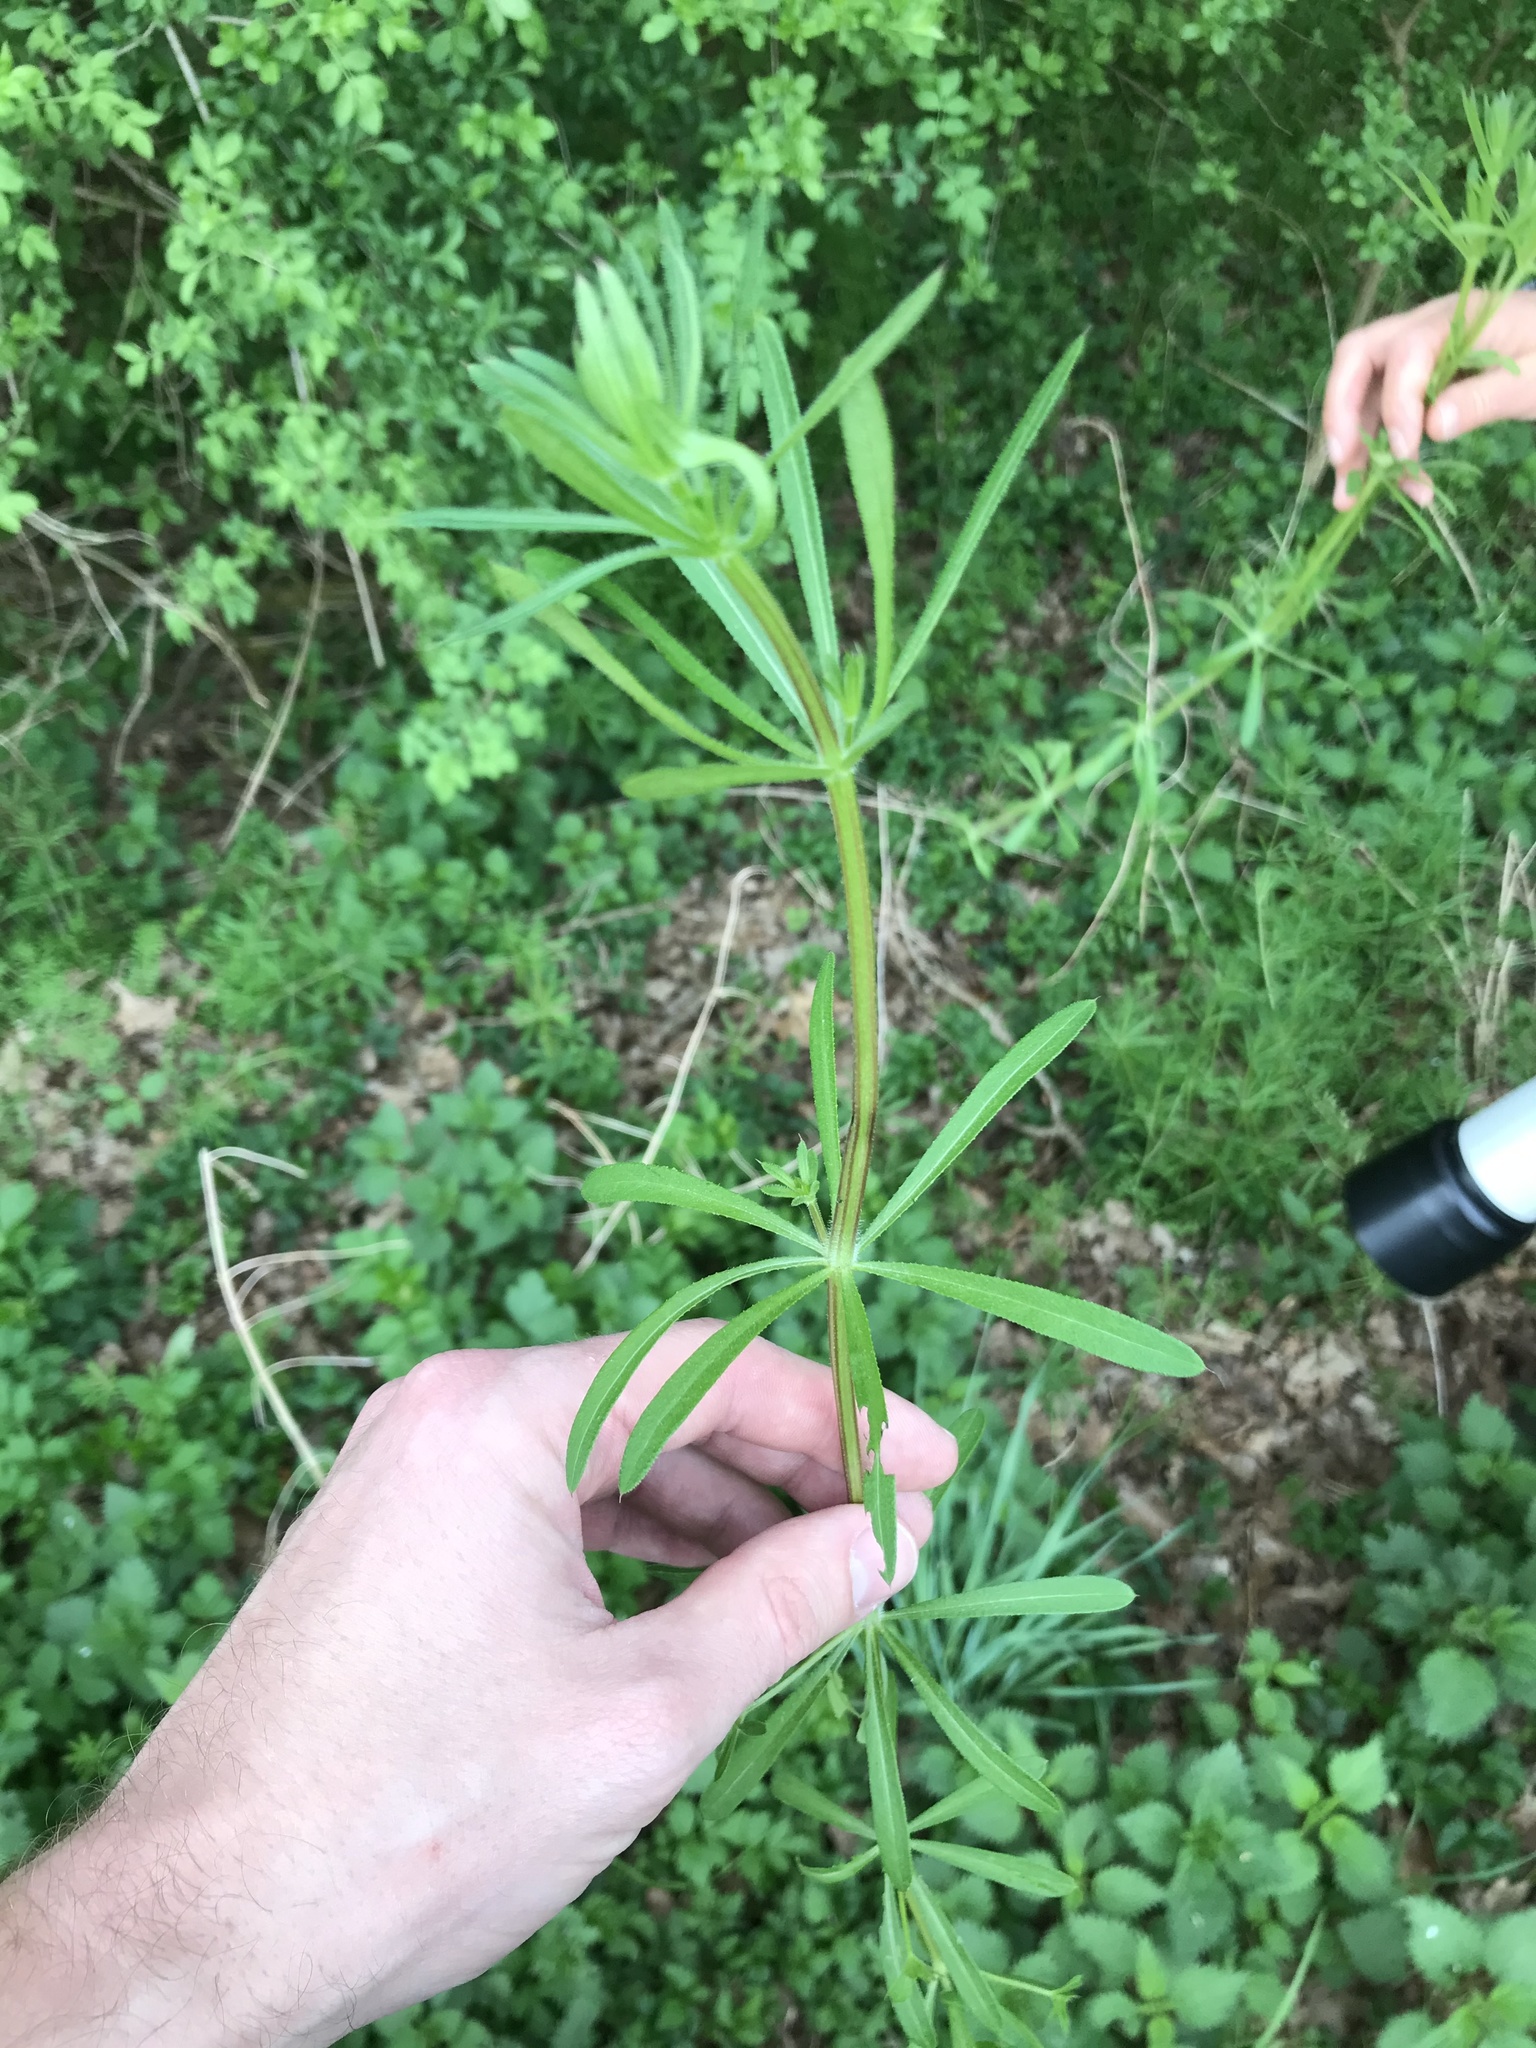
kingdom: Plantae
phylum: Tracheophyta
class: Magnoliopsida
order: Gentianales
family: Rubiaceae
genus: Galium
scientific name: Galium aparine
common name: Cleavers
